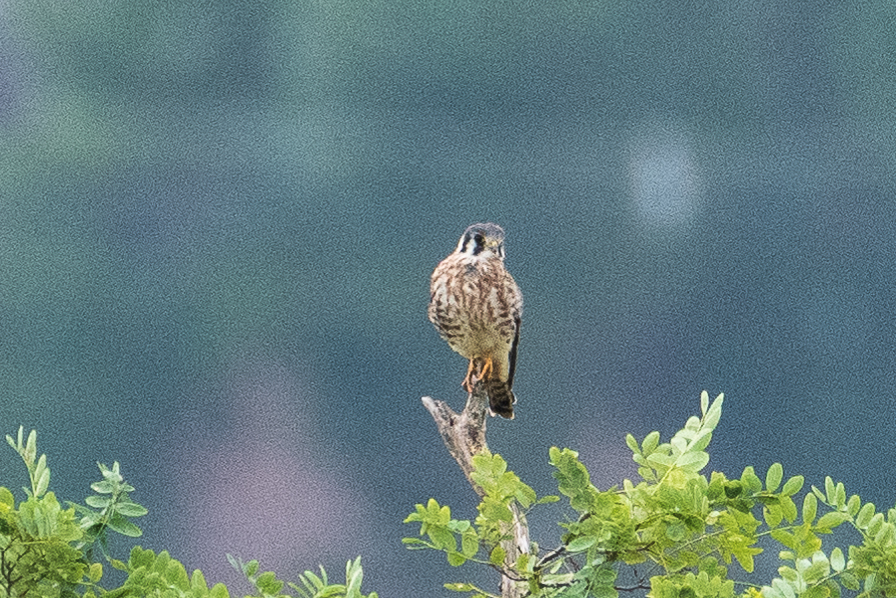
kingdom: Animalia
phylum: Chordata
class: Aves
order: Falconiformes
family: Falconidae
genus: Falco
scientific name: Falco sparverius
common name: American kestrel
